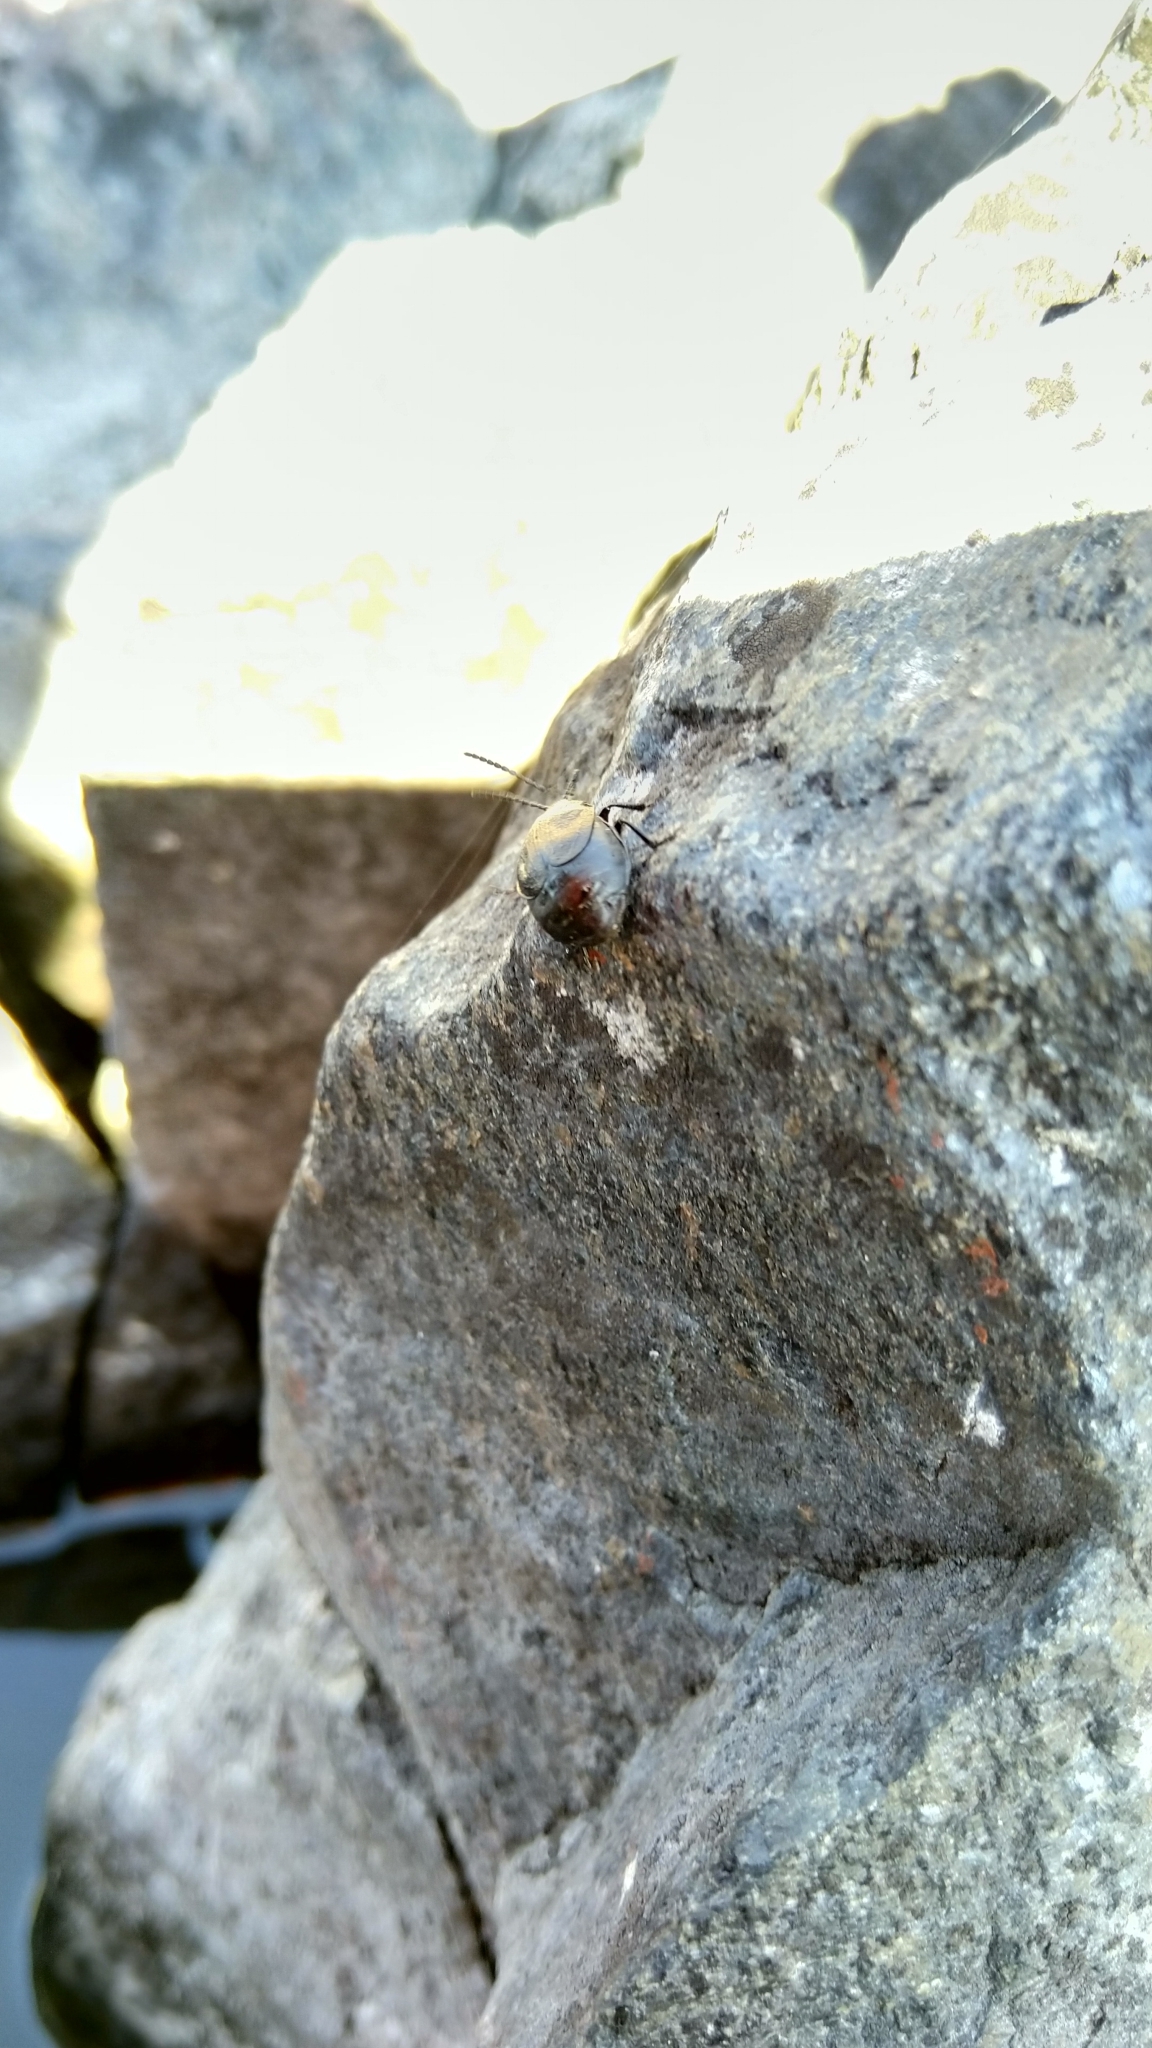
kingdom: Animalia
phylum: Arthropoda
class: Insecta
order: Coleoptera
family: Chrysomelidae
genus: Galeruca
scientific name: Galeruca tanaceti
